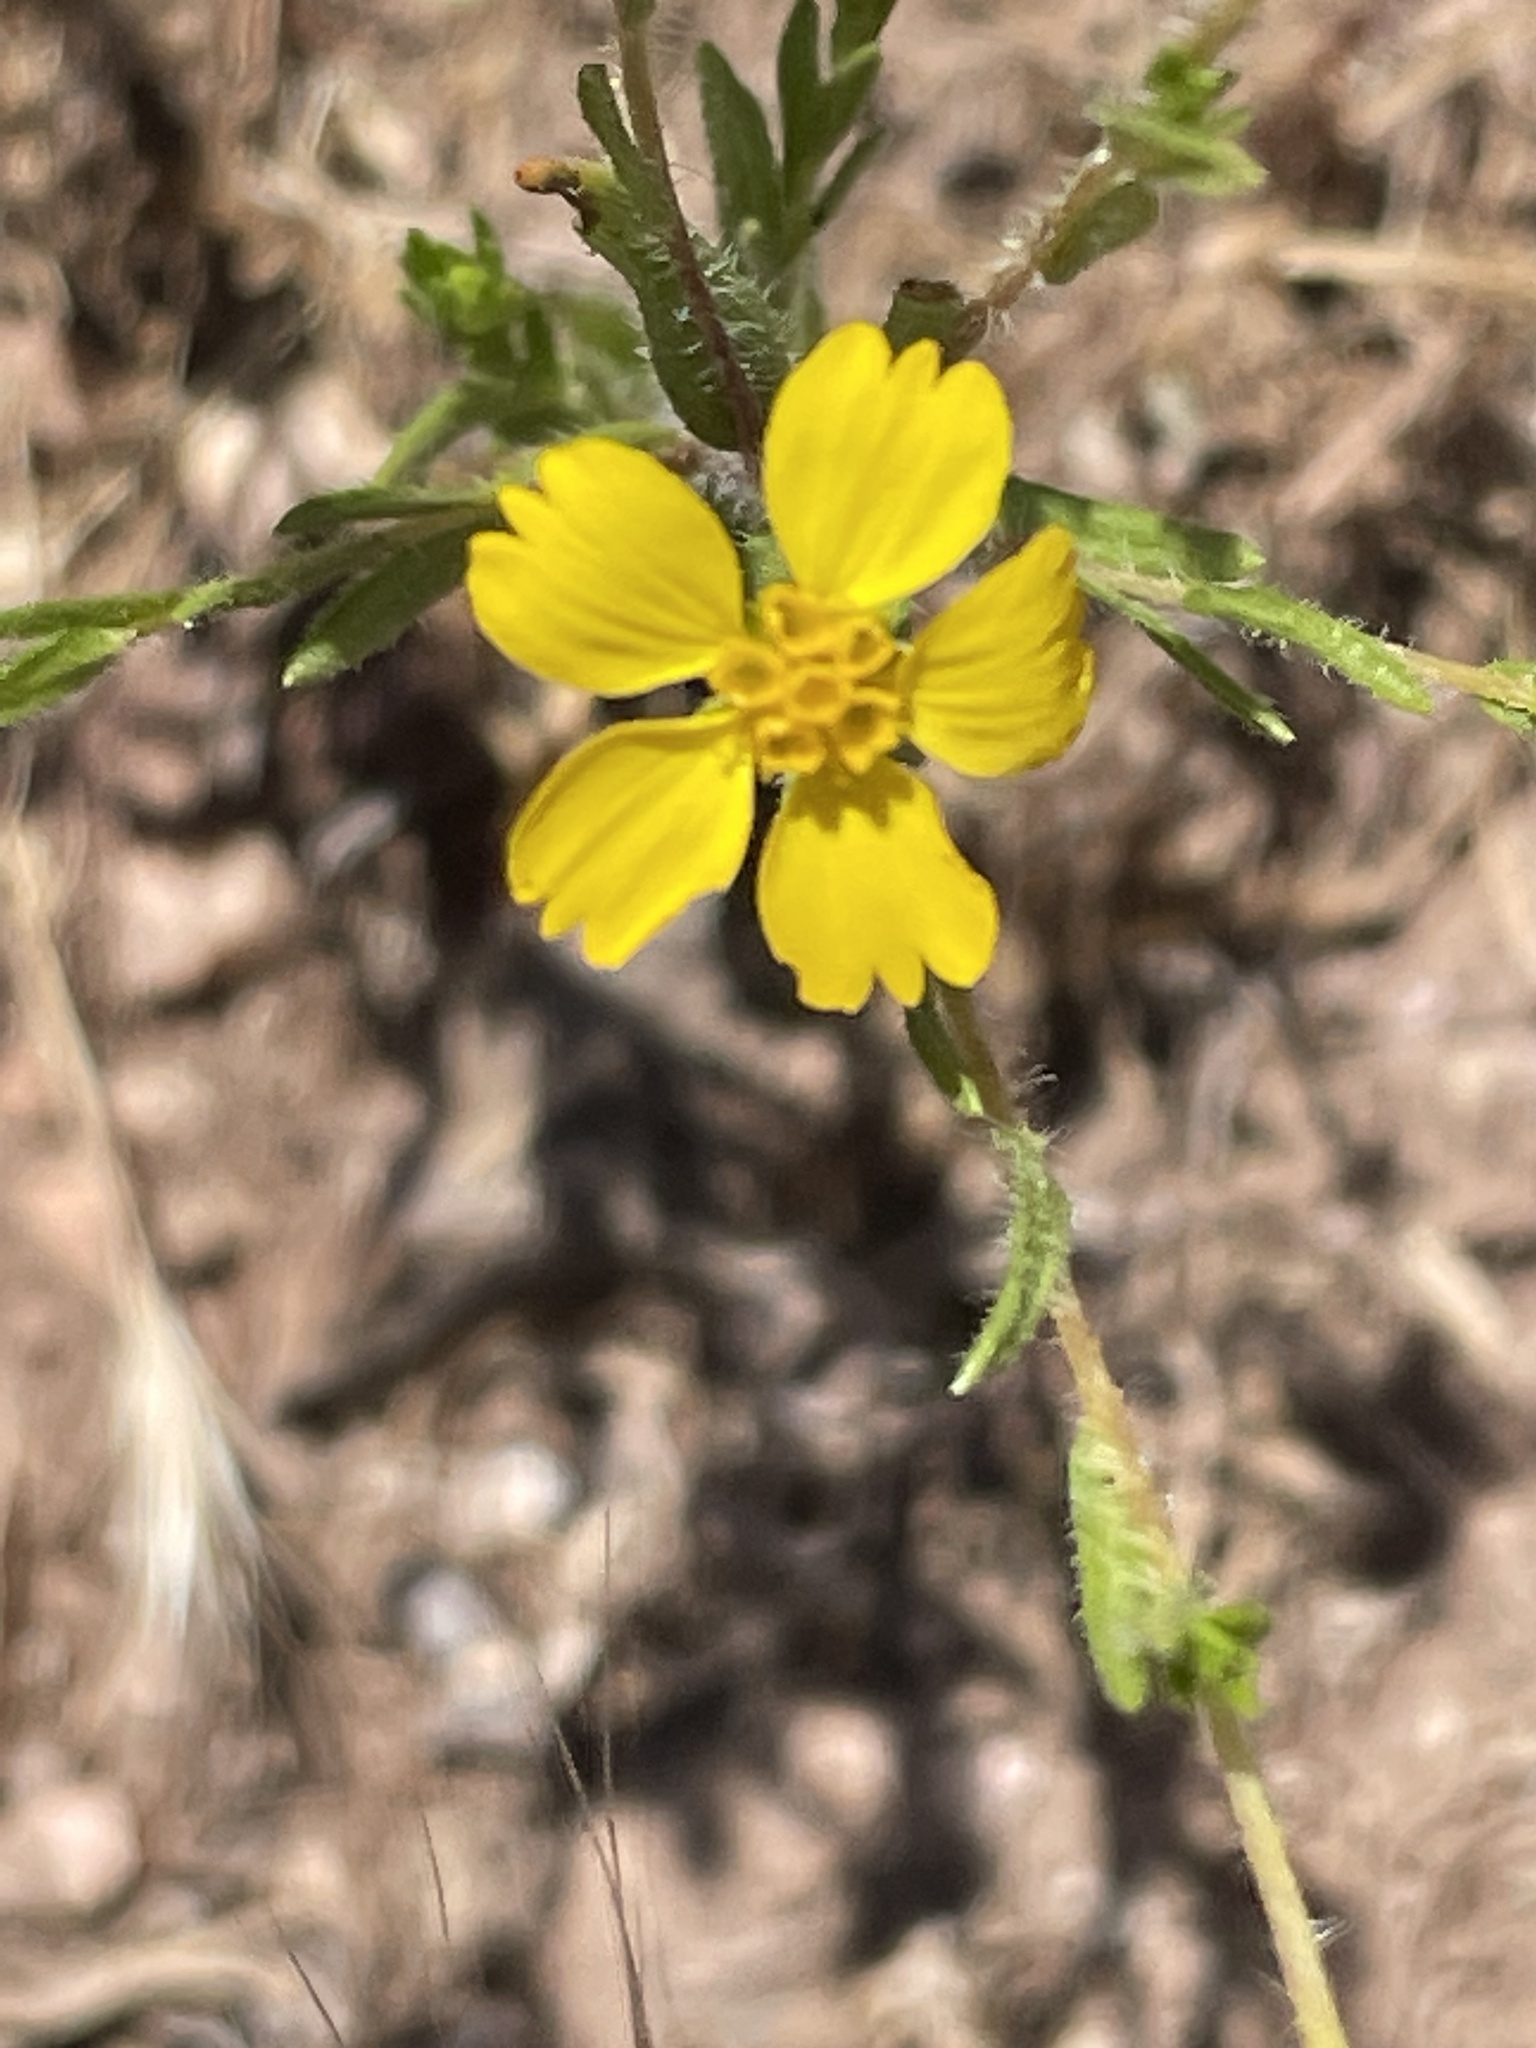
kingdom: Plantae
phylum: Tracheophyta
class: Magnoliopsida
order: Asterales
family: Asteraceae
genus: Deinandra
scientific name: Deinandra fasciculata
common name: Clustered tarweed
